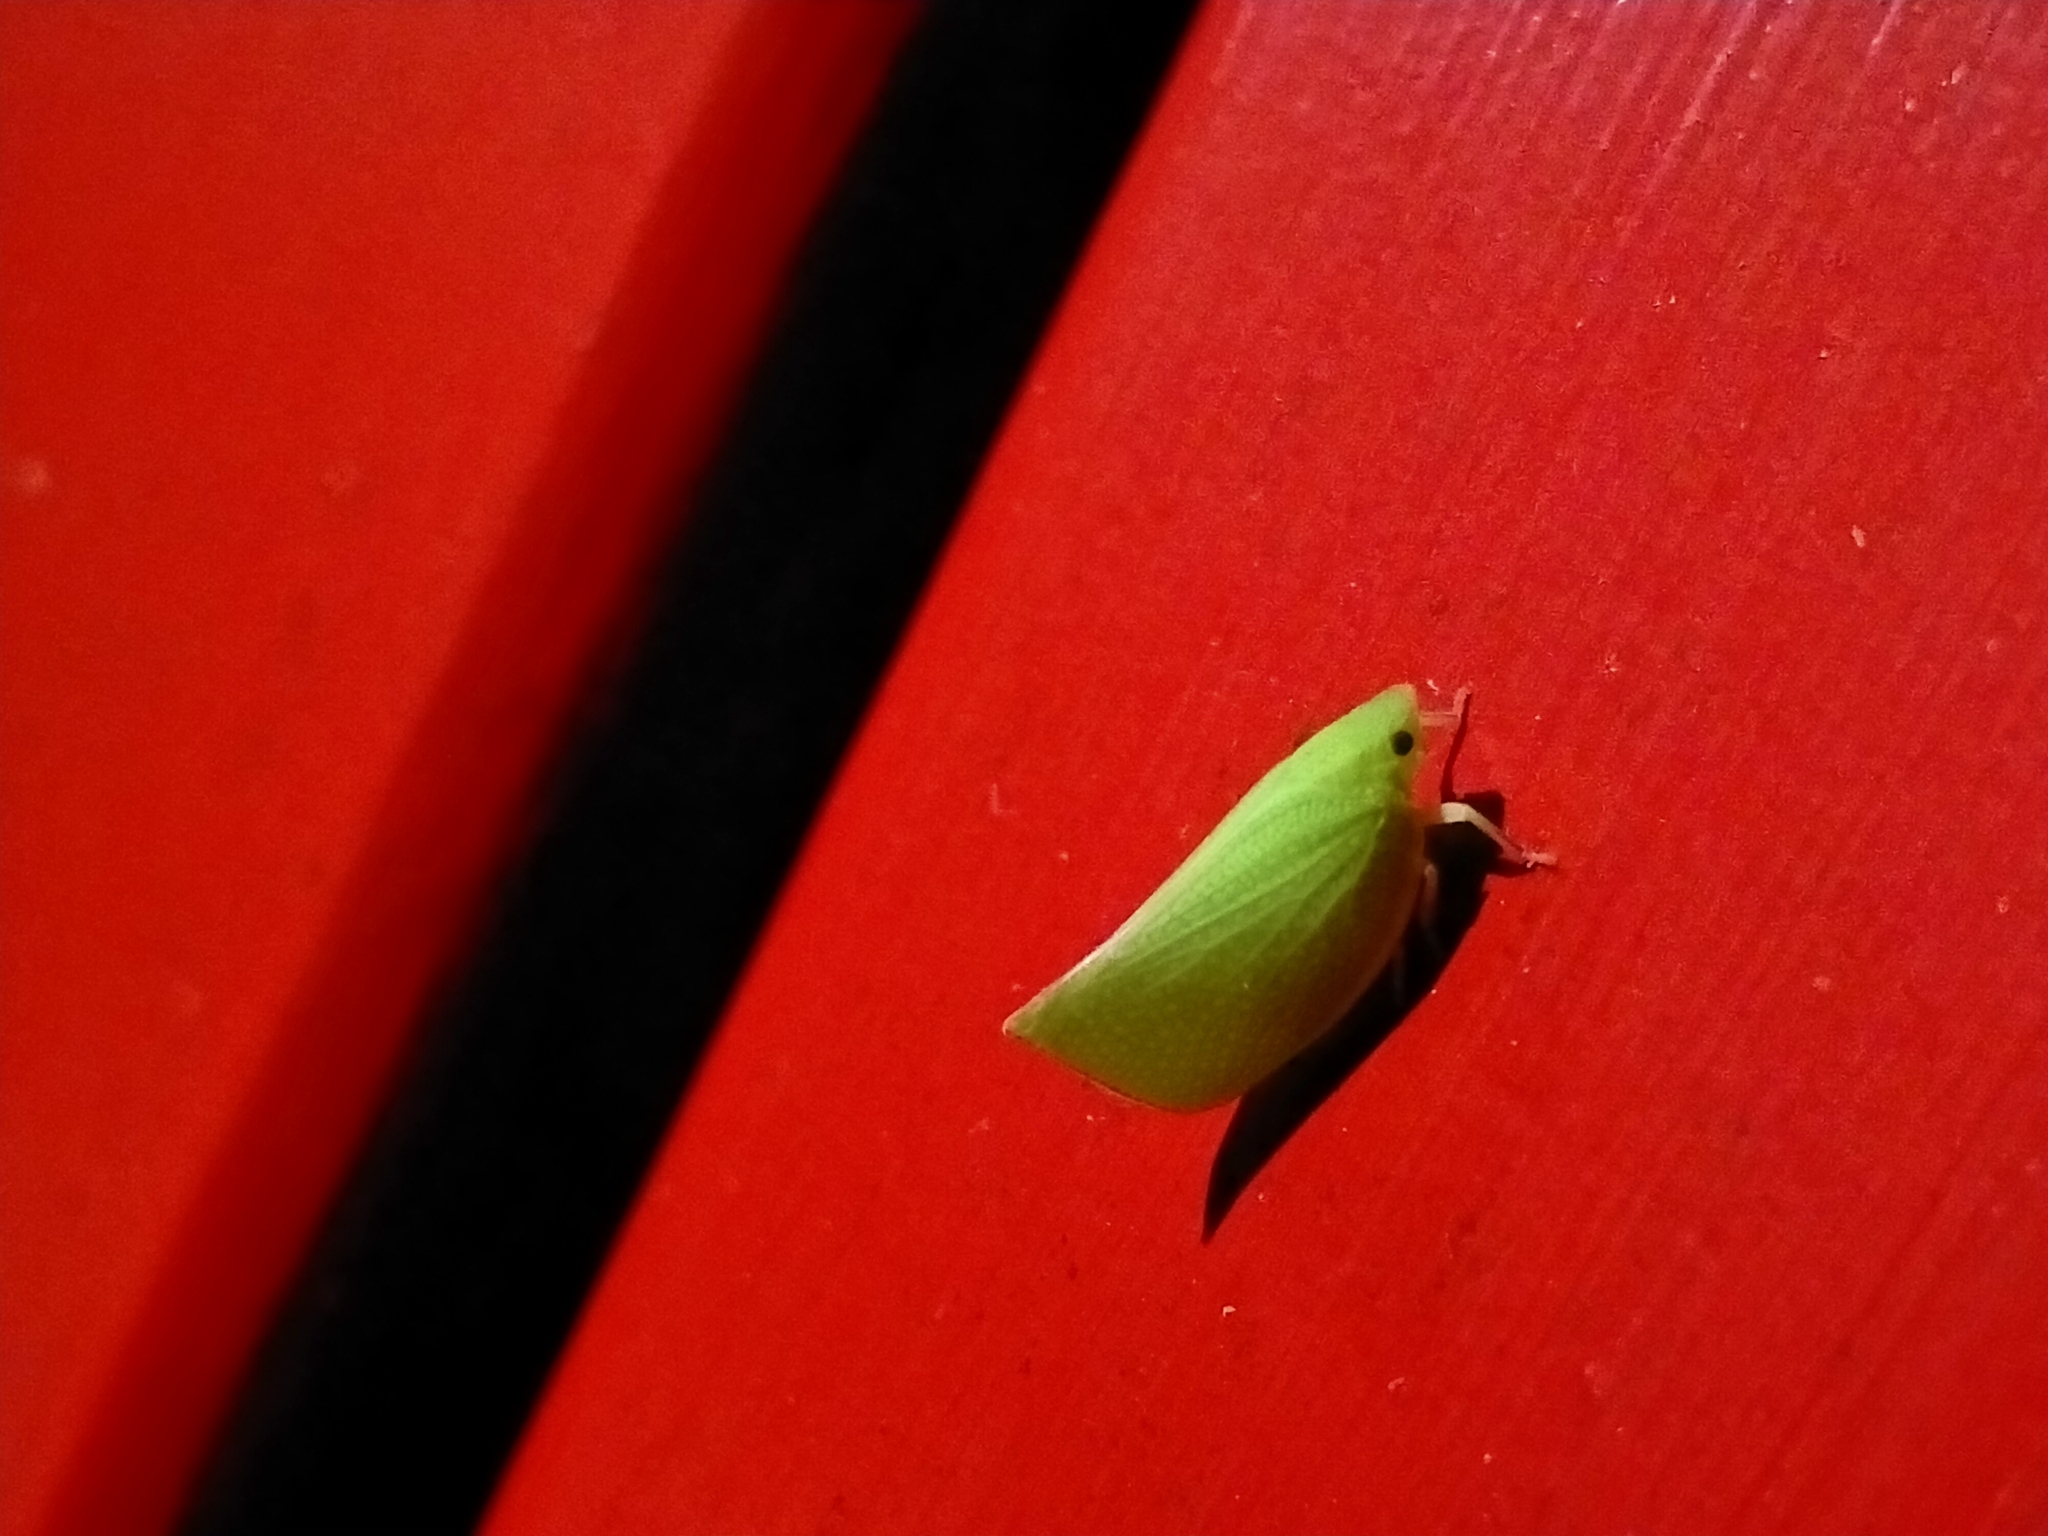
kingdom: Animalia
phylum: Arthropoda
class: Insecta
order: Hemiptera
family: Flatidae
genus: Siphanta
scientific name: Siphanta acuta
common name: Torpedo bug
